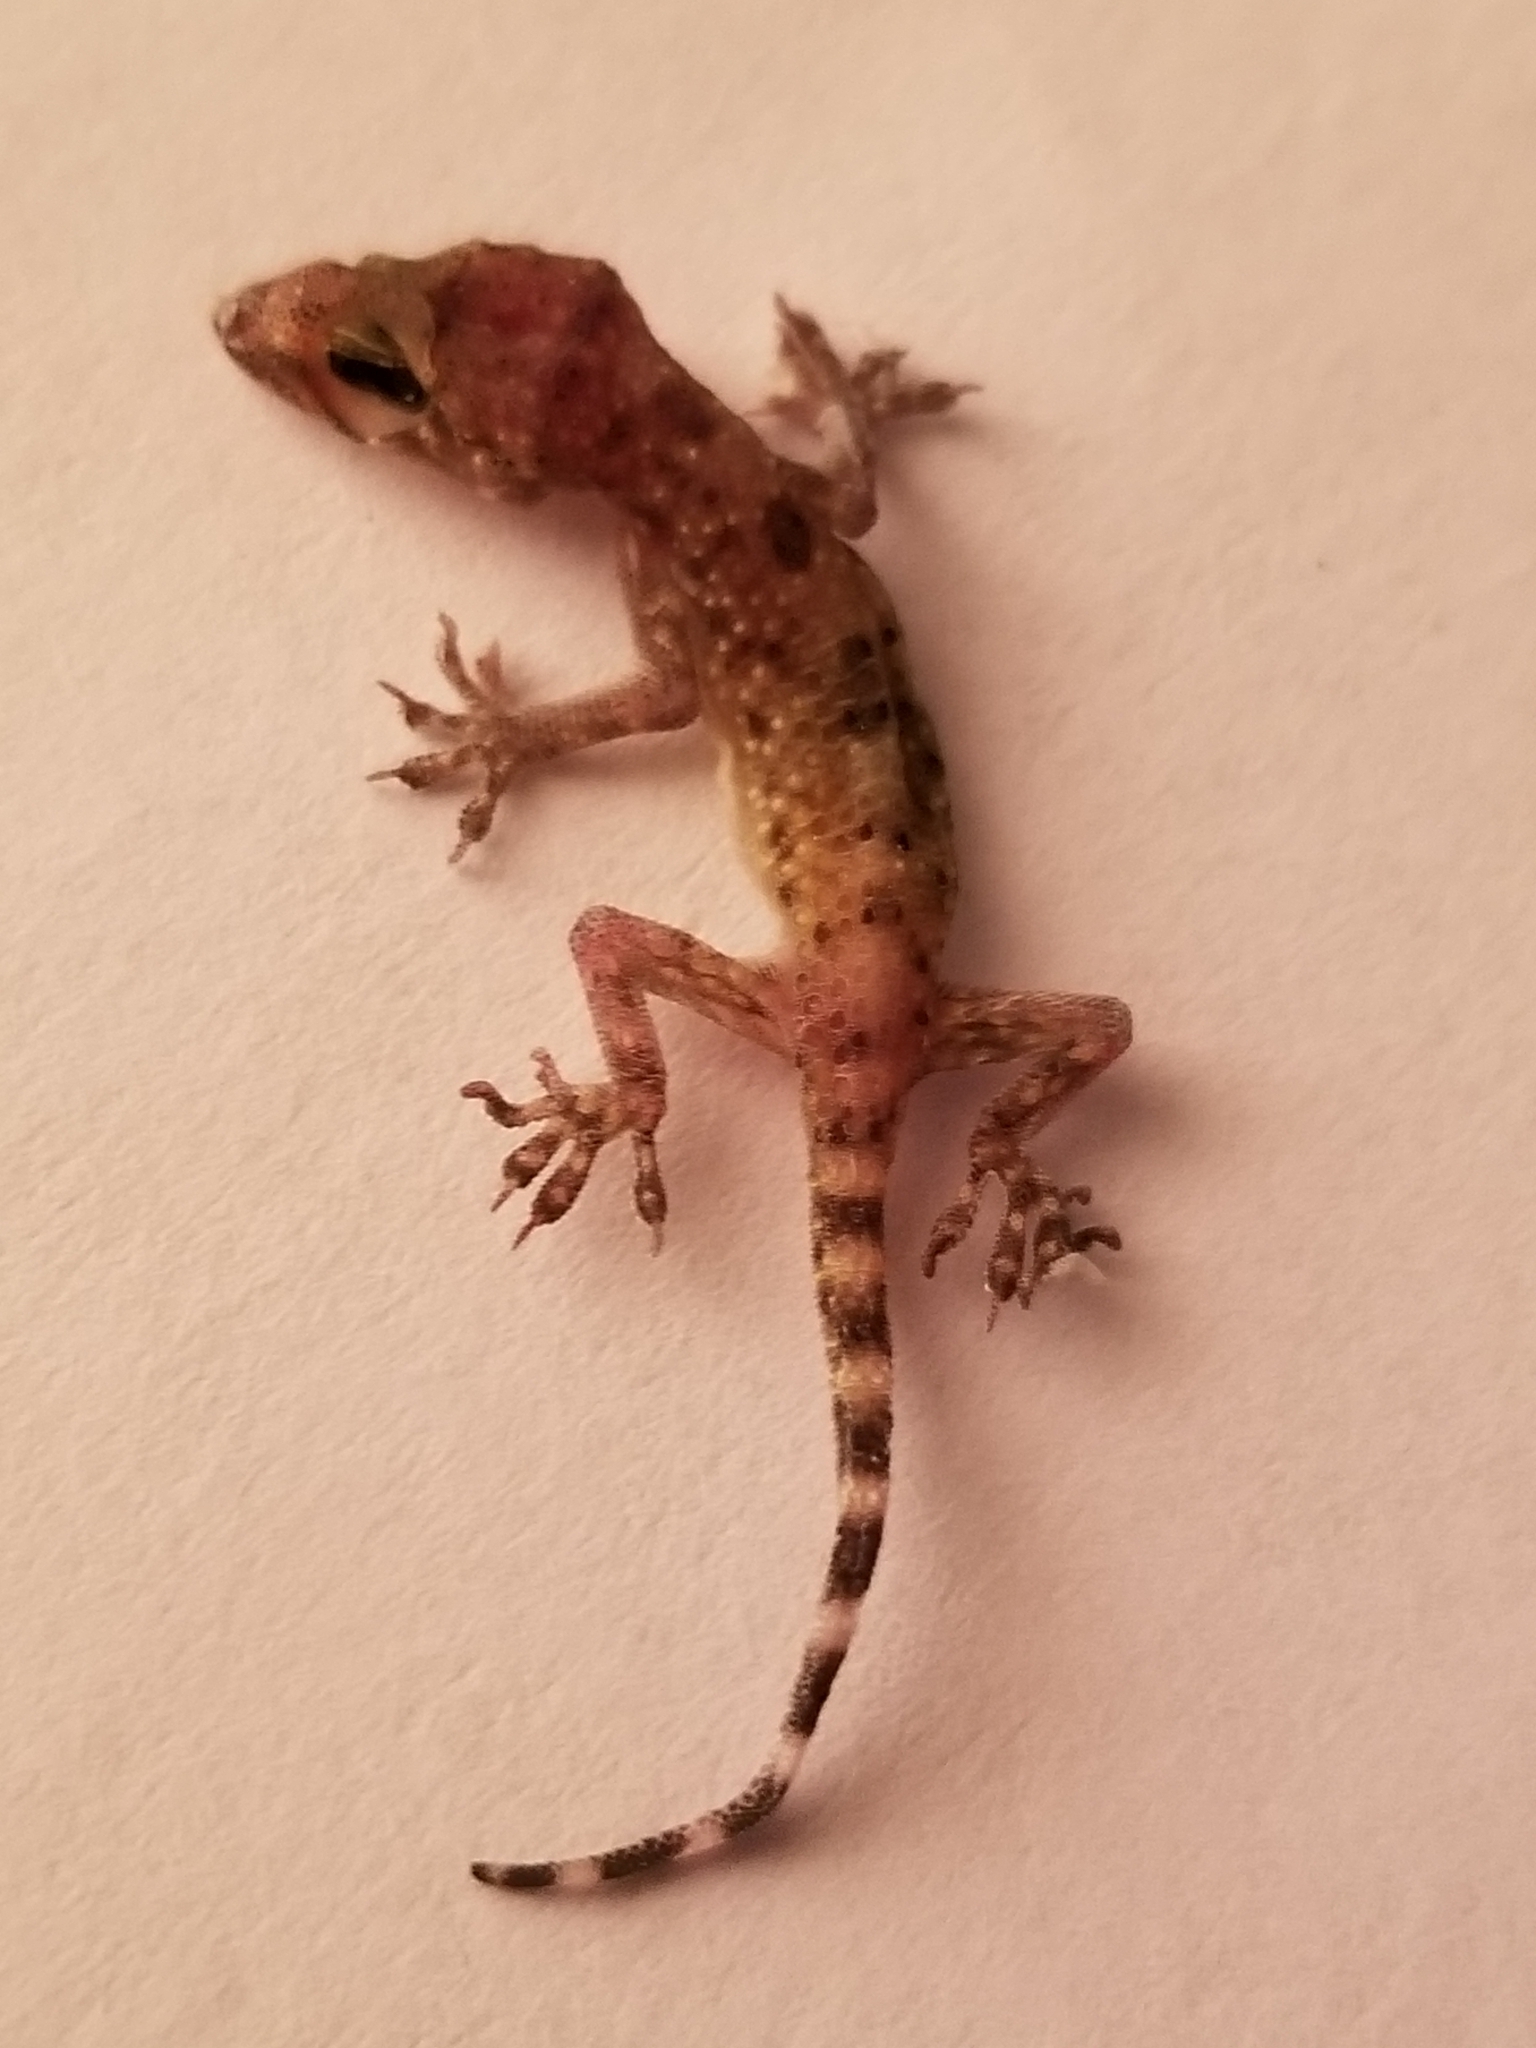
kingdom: Animalia
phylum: Chordata
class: Squamata
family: Gekkonidae
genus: Hemidactylus
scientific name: Hemidactylus turcicus
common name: Turkish gecko
